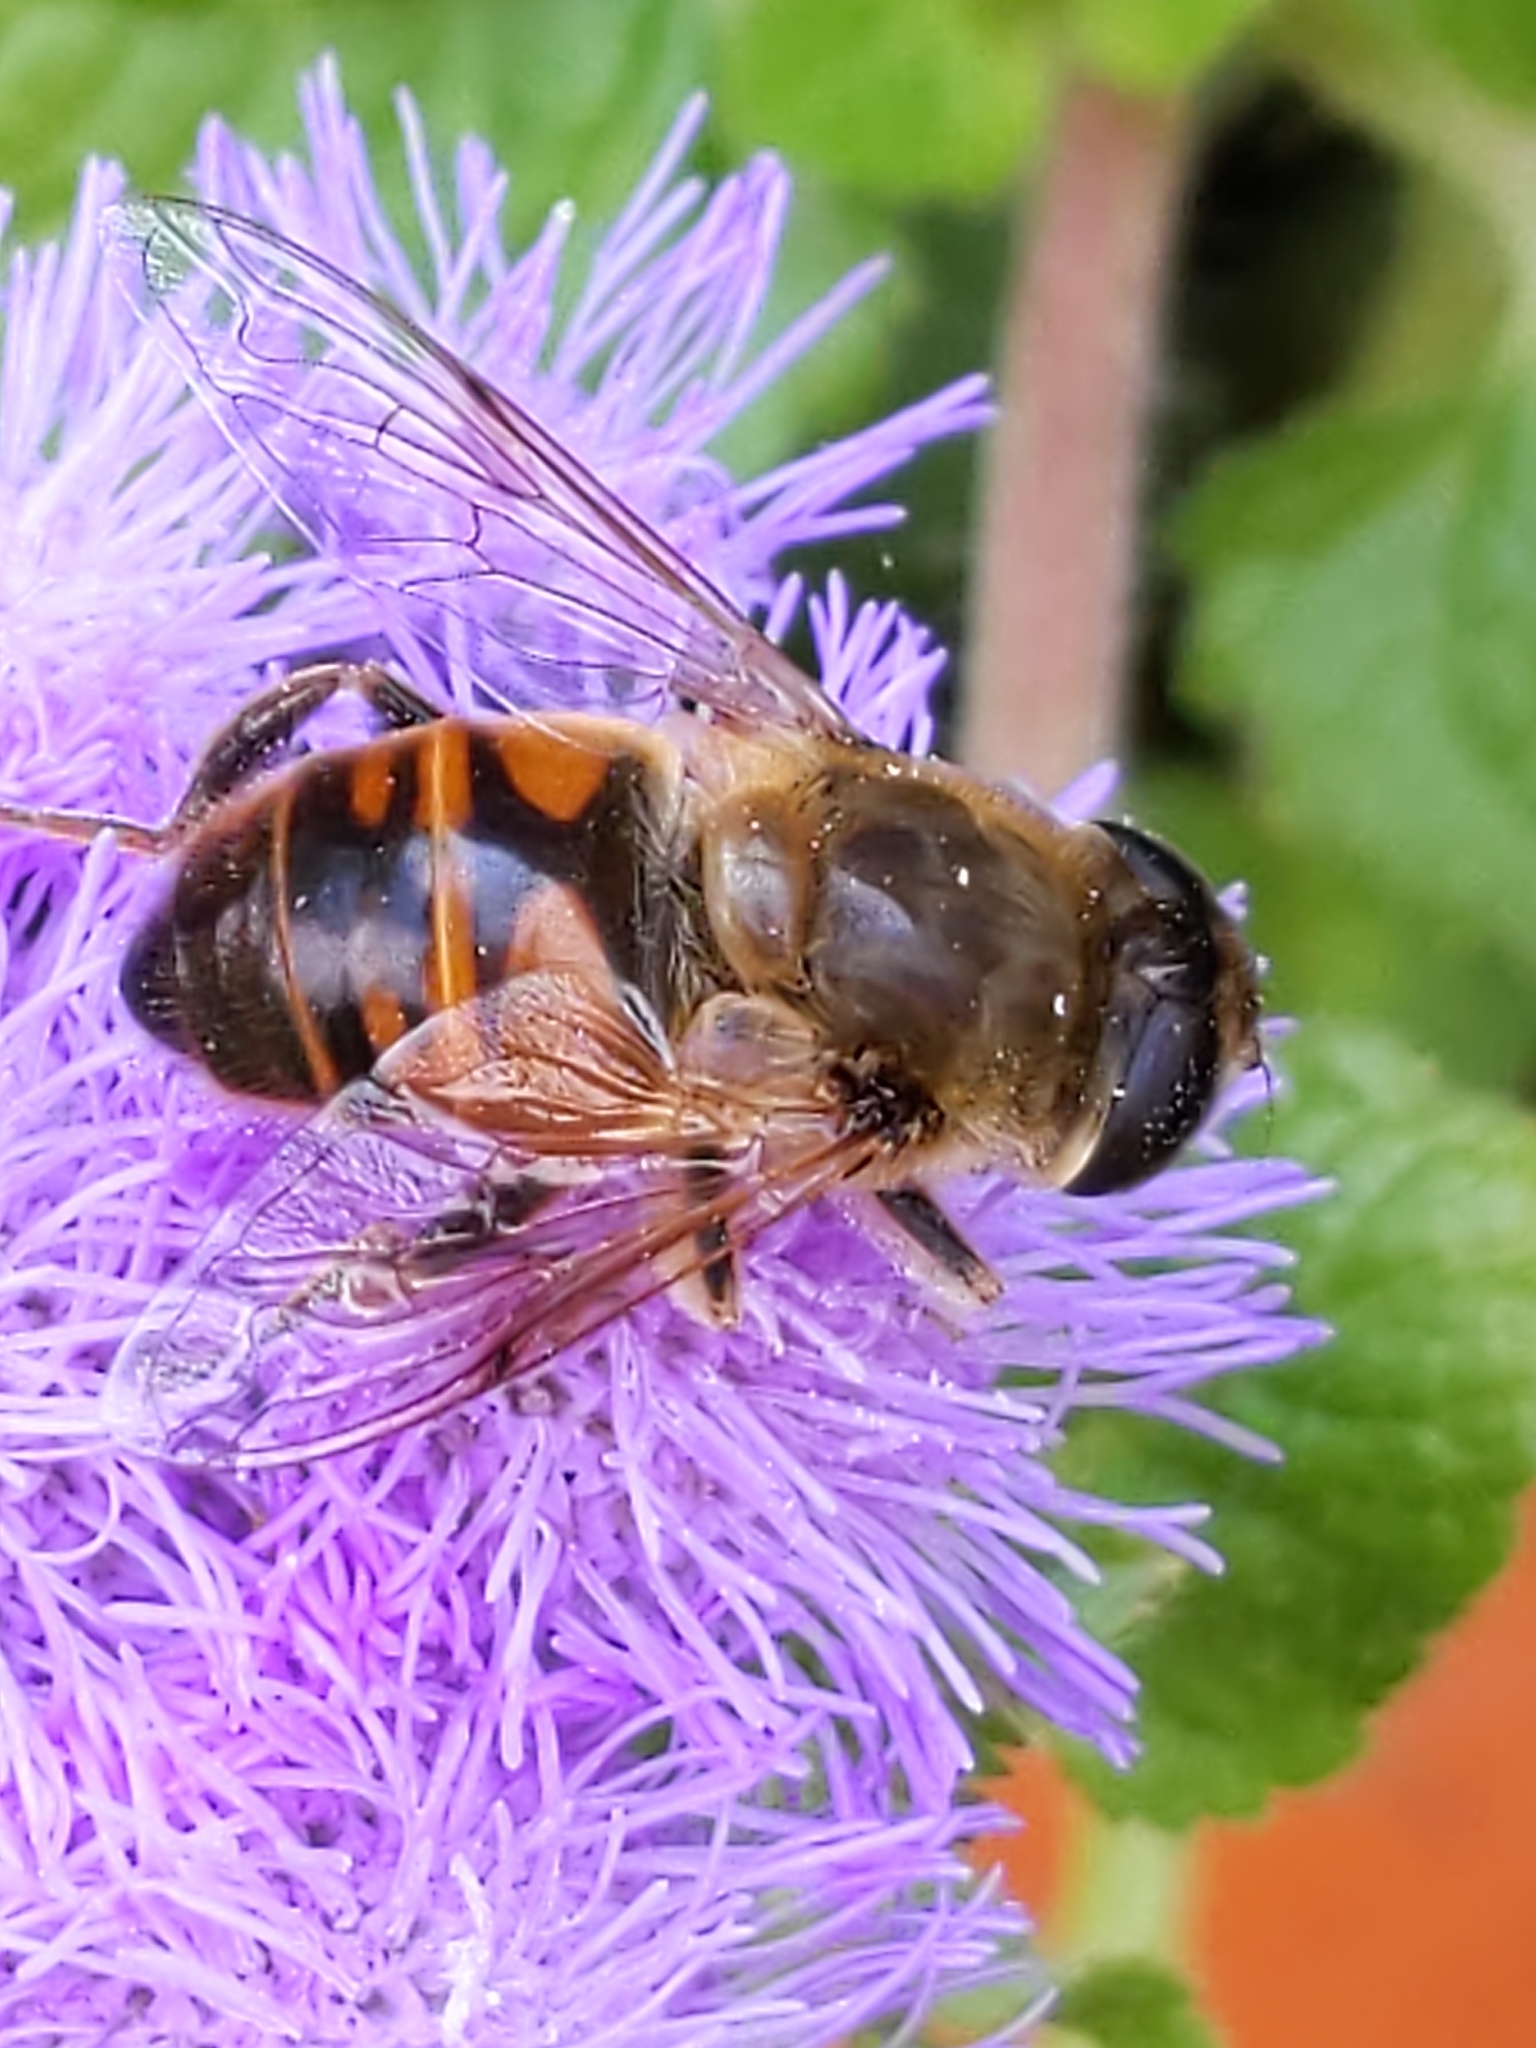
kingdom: Animalia
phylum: Arthropoda
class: Insecta
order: Diptera
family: Syrphidae
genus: Eristalis
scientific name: Eristalis tenax
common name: Drone fly
